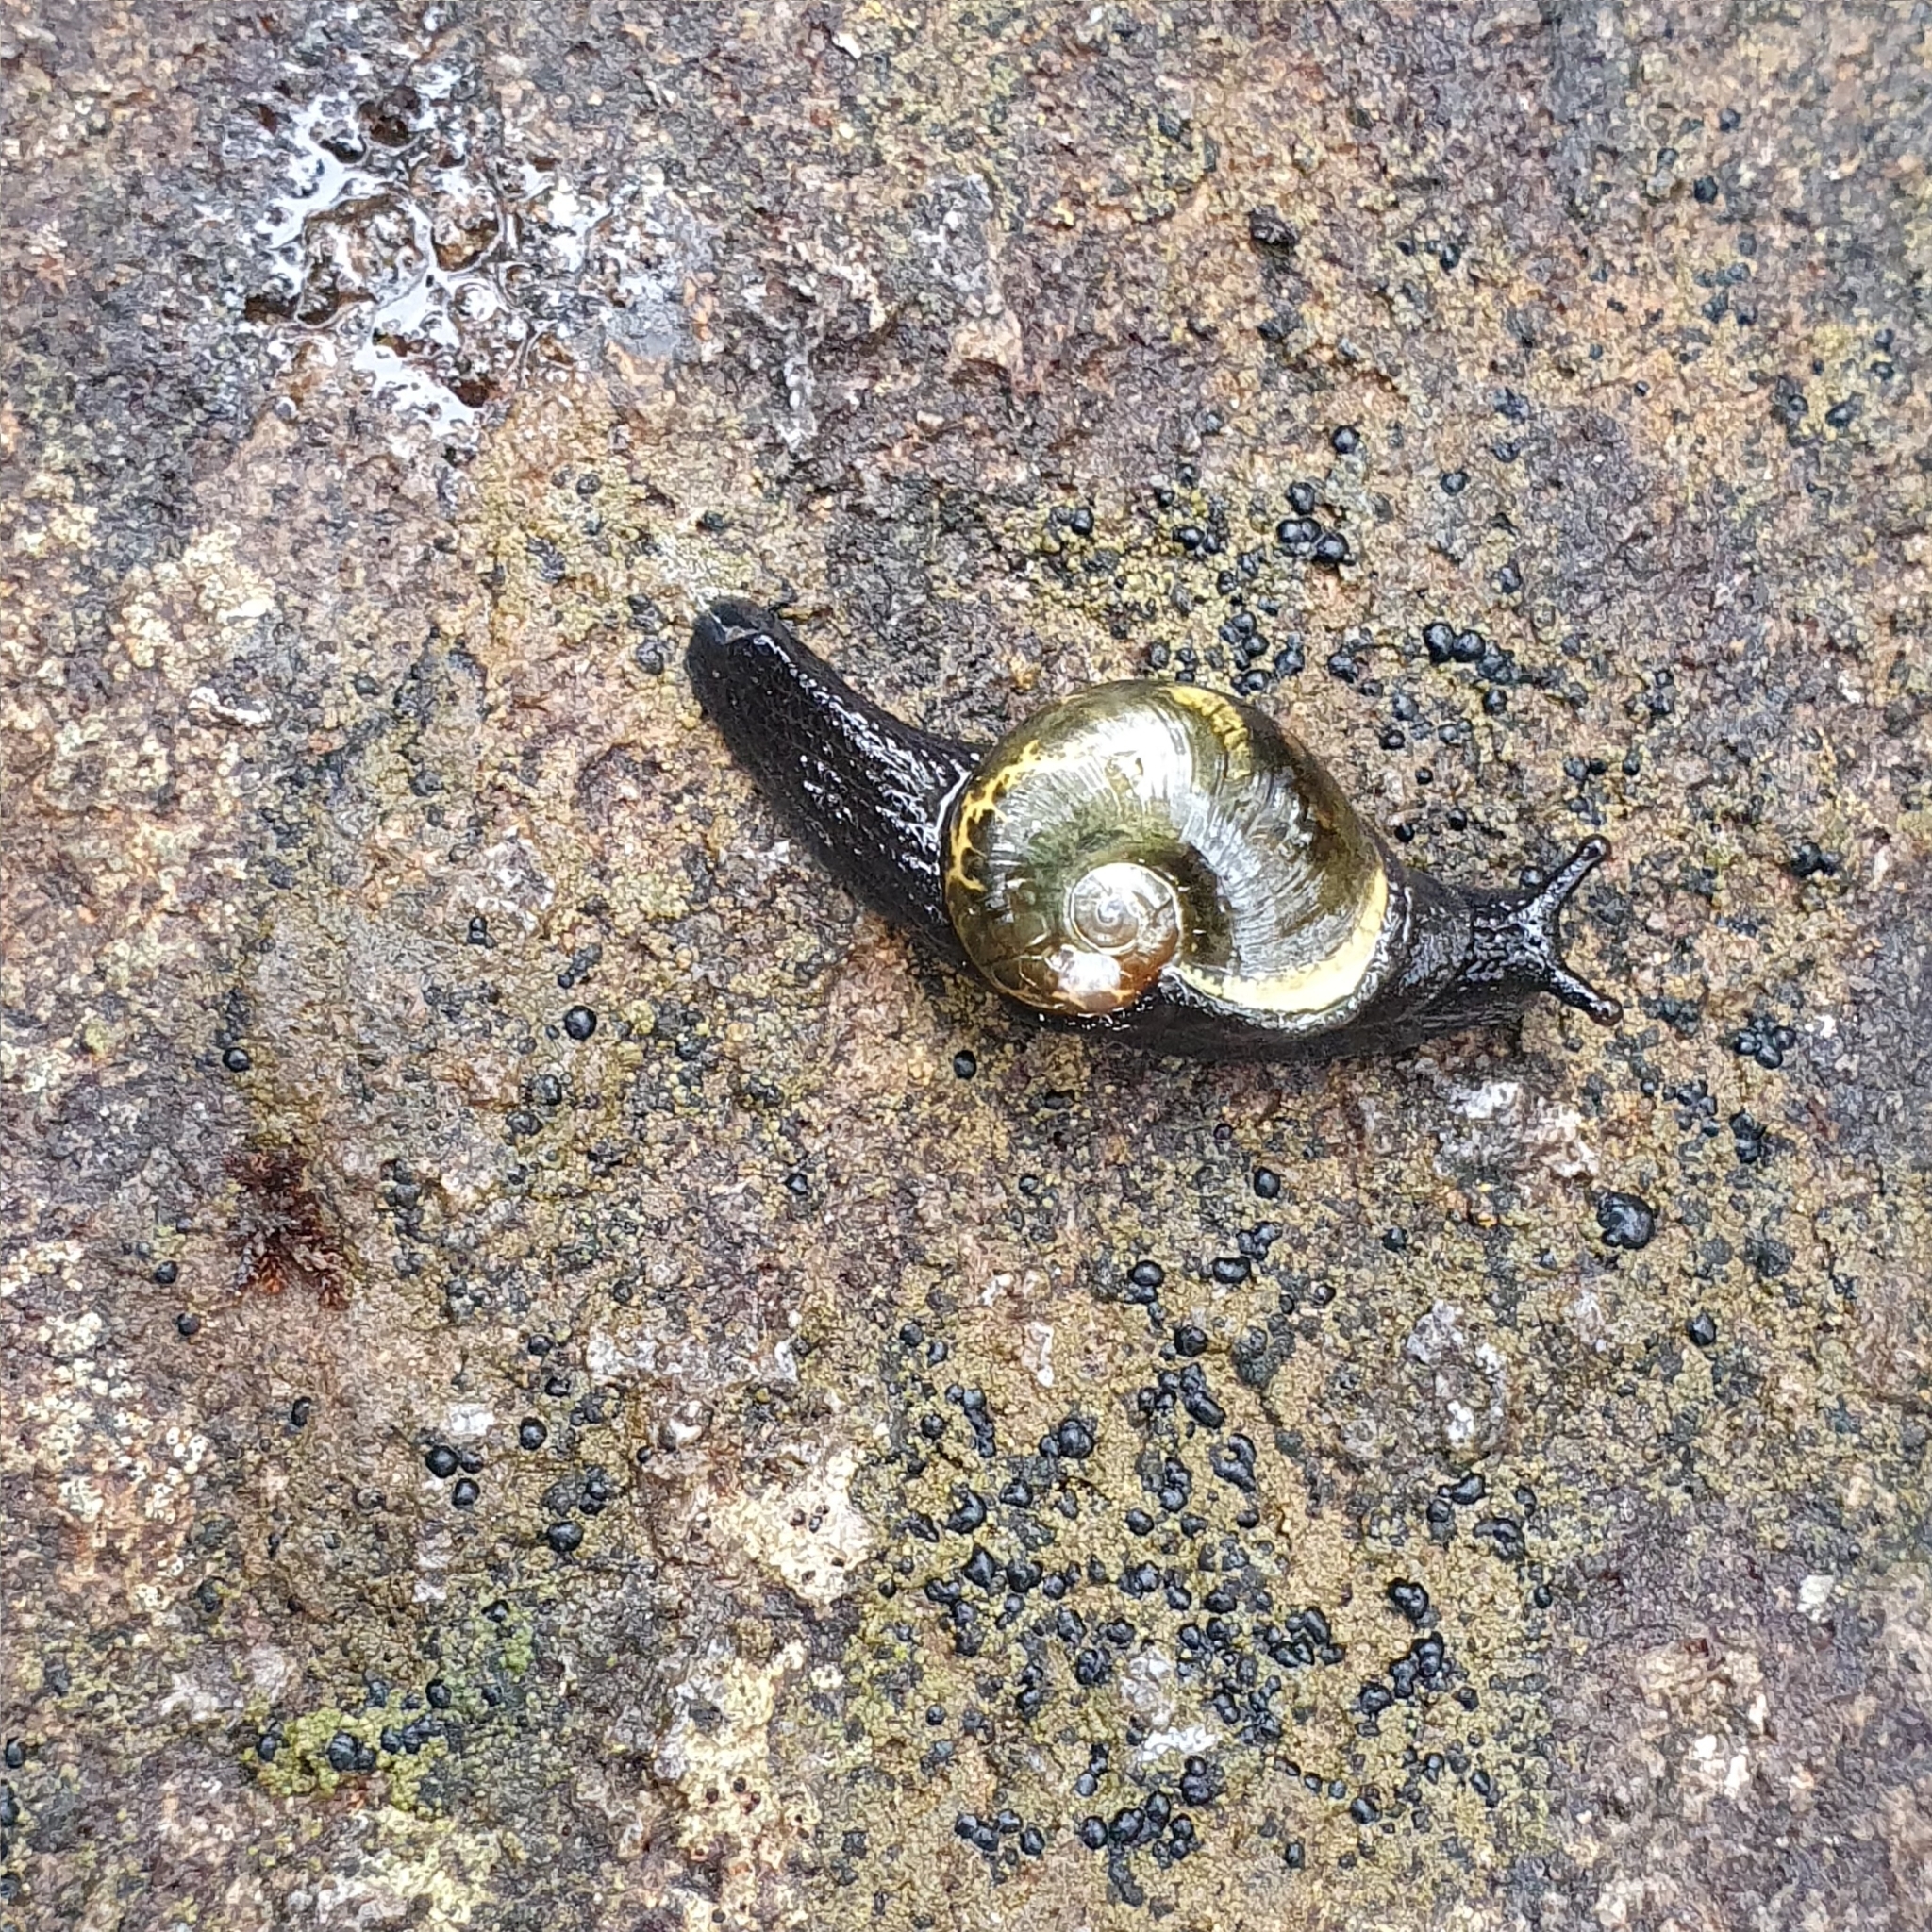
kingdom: Animalia
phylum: Mollusca
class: Gastropoda
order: Stylommatophora
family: Helicarionidae
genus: Helicarion
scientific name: Helicarion cuvieri
